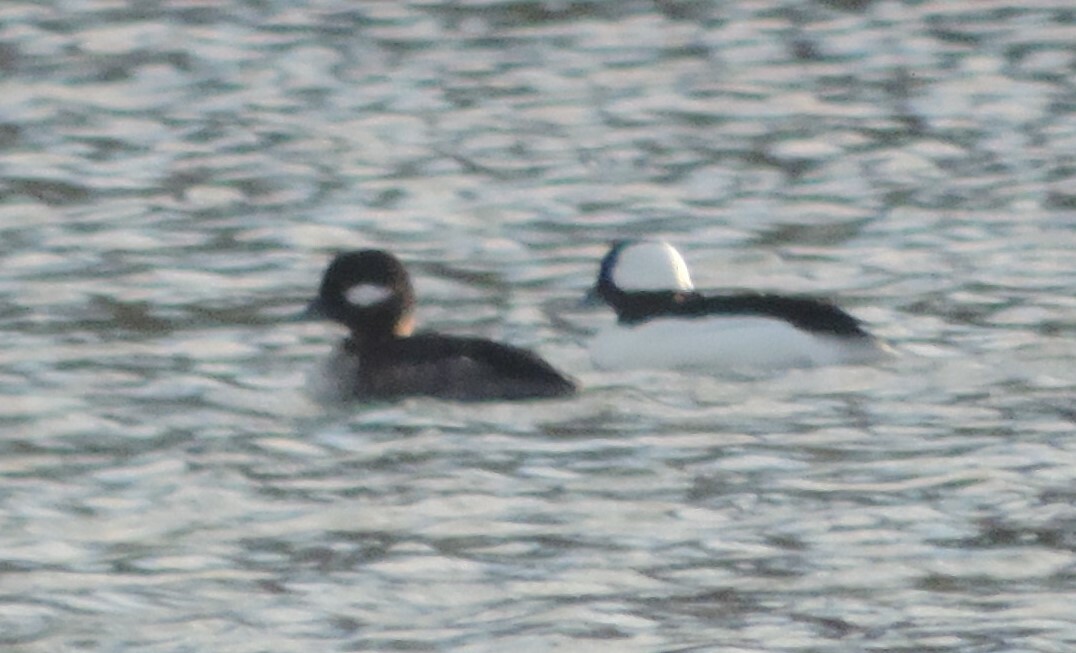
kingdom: Animalia
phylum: Chordata
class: Aves
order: Anseriformes
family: Anatidae
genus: Bucephala
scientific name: Bucephala albeola
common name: Bufflehead
